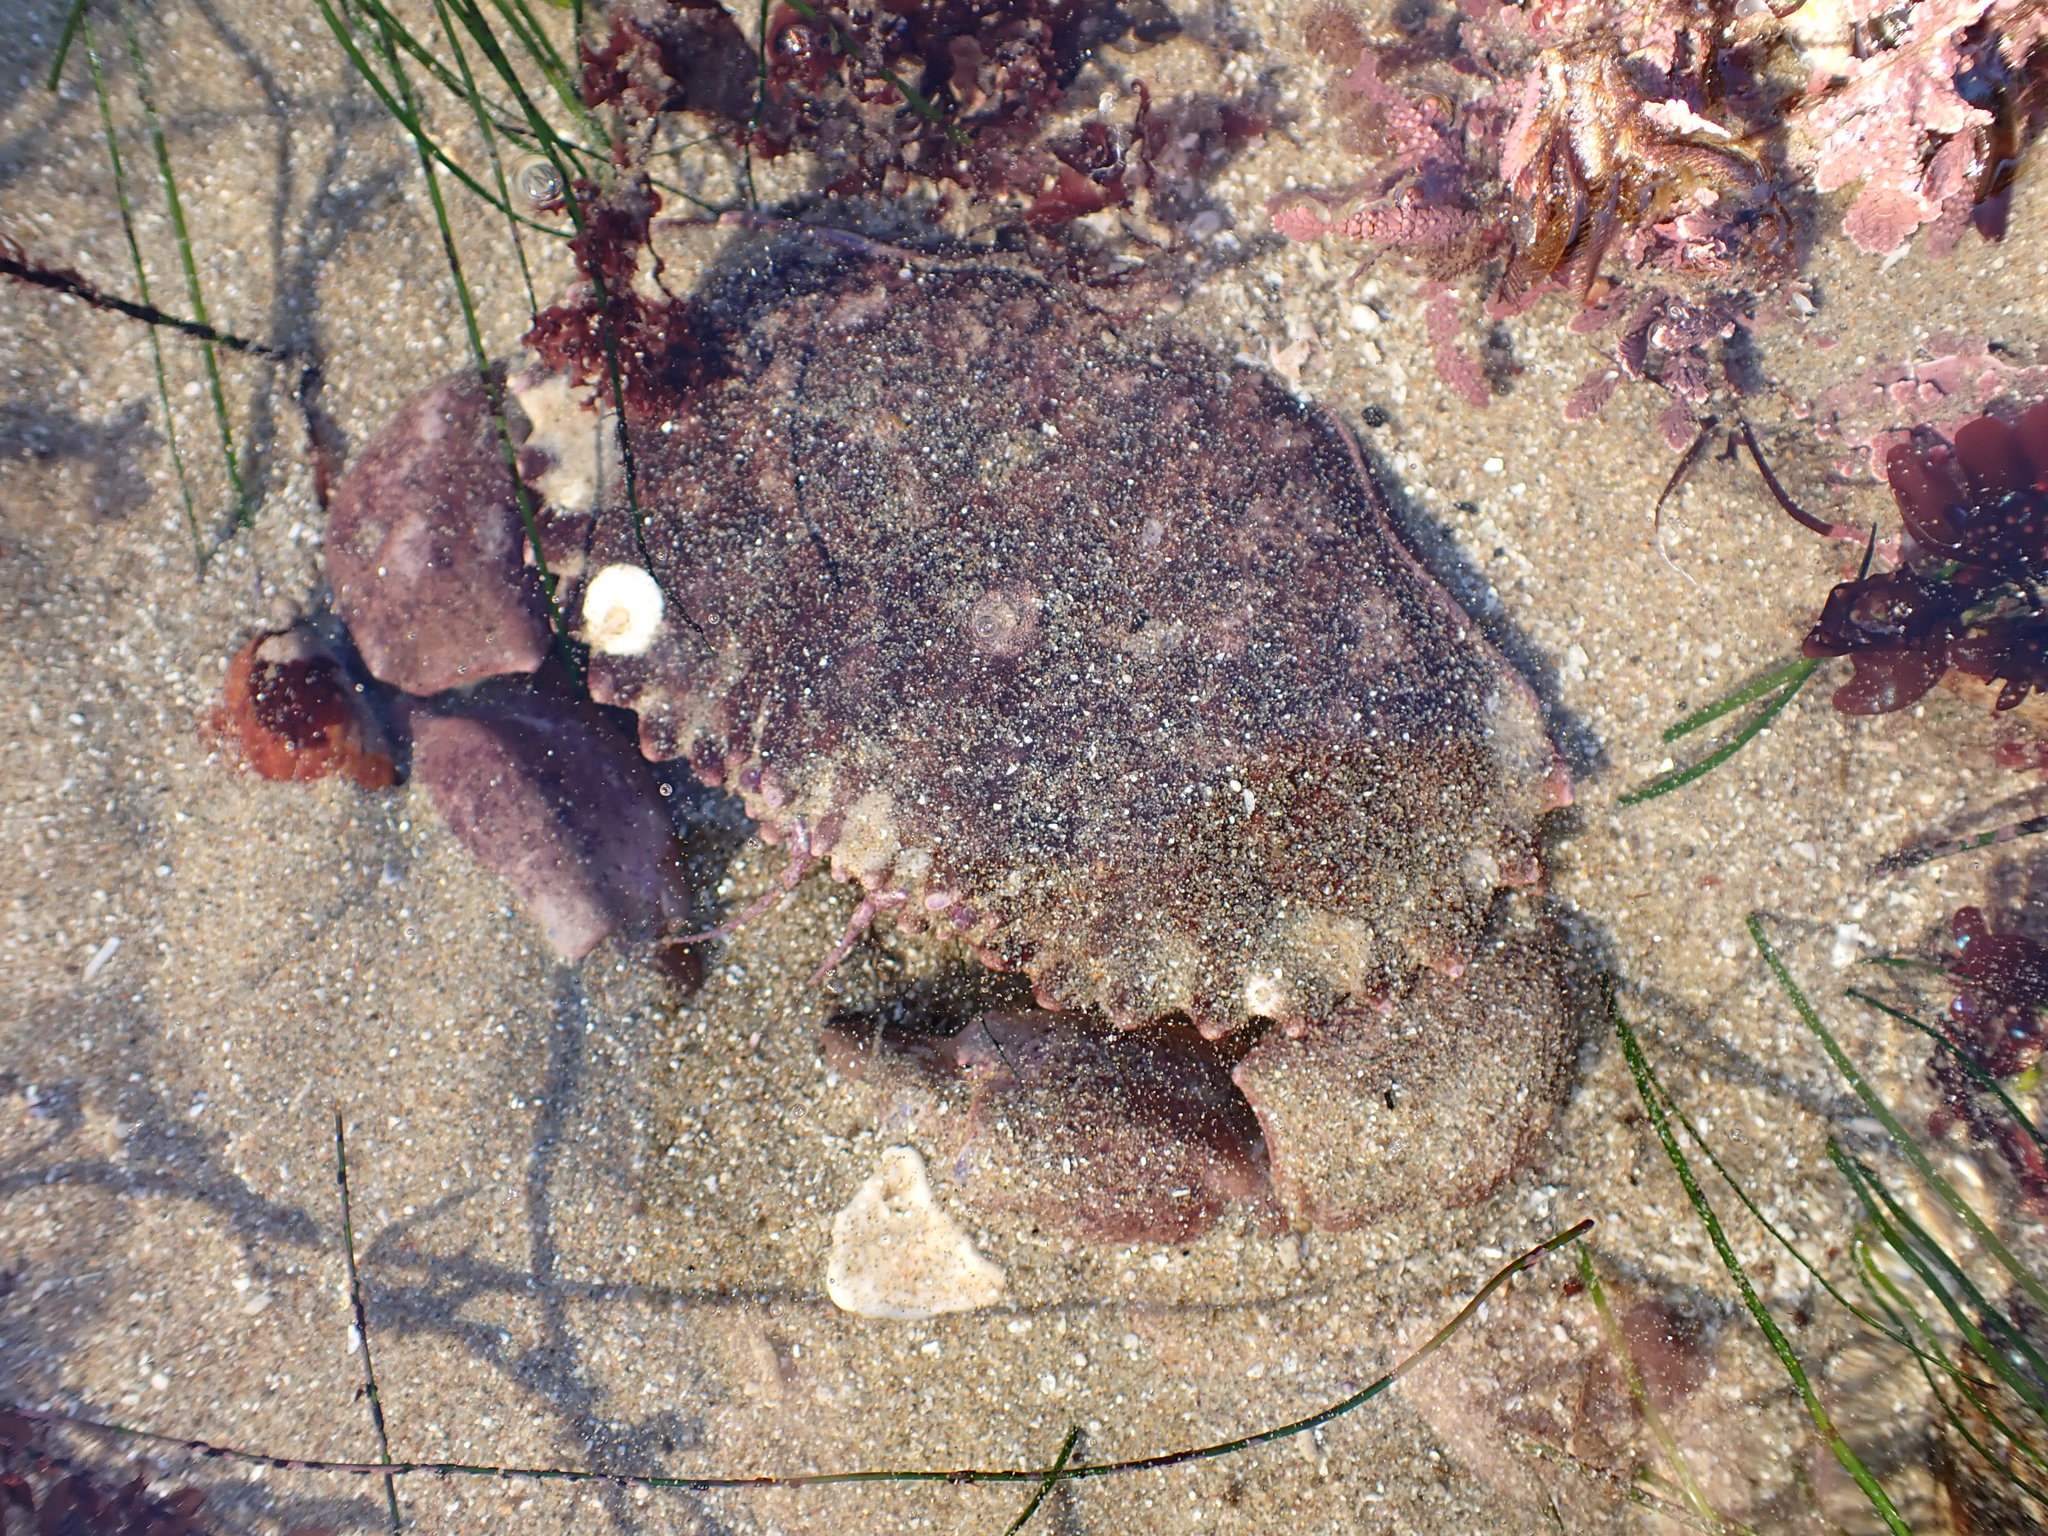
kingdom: Animalia
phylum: Arthropoda
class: Malacostraca
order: Decapoda
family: Cancridae
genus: Romaleon
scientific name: Romaleon antennarium
